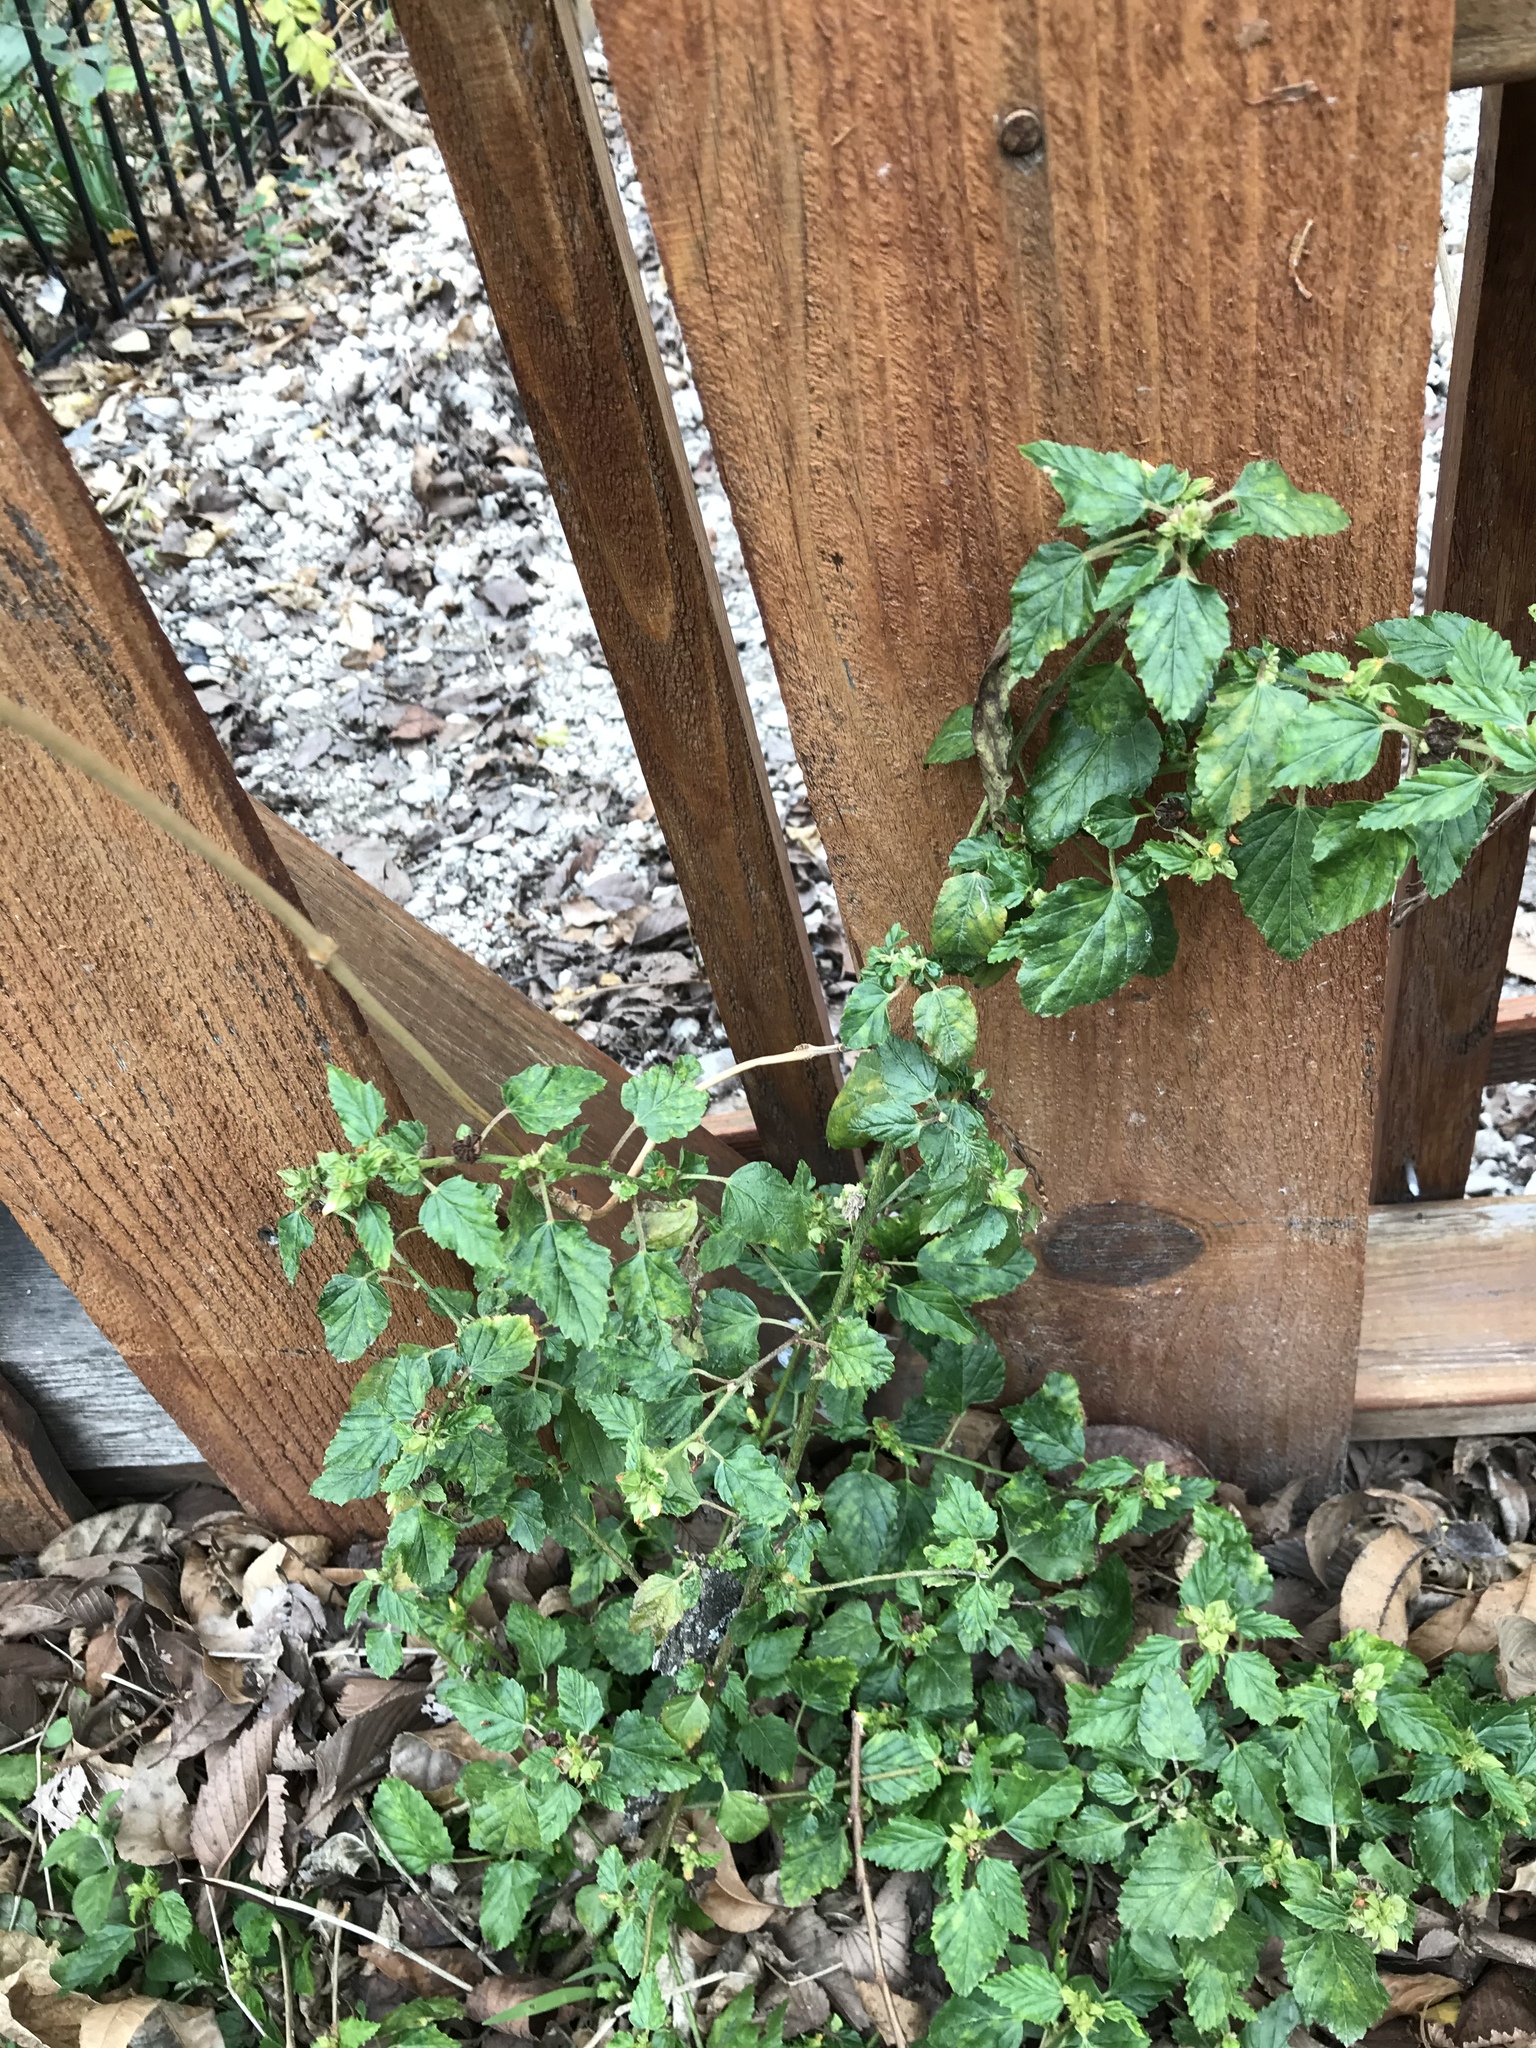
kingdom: Plantae
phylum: Tracheophyta
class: Magnoliopsida
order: Malvales
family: Malvaceae
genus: Malvastrum
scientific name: Malvastrum coromandelianum
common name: Threelobe false mallow
